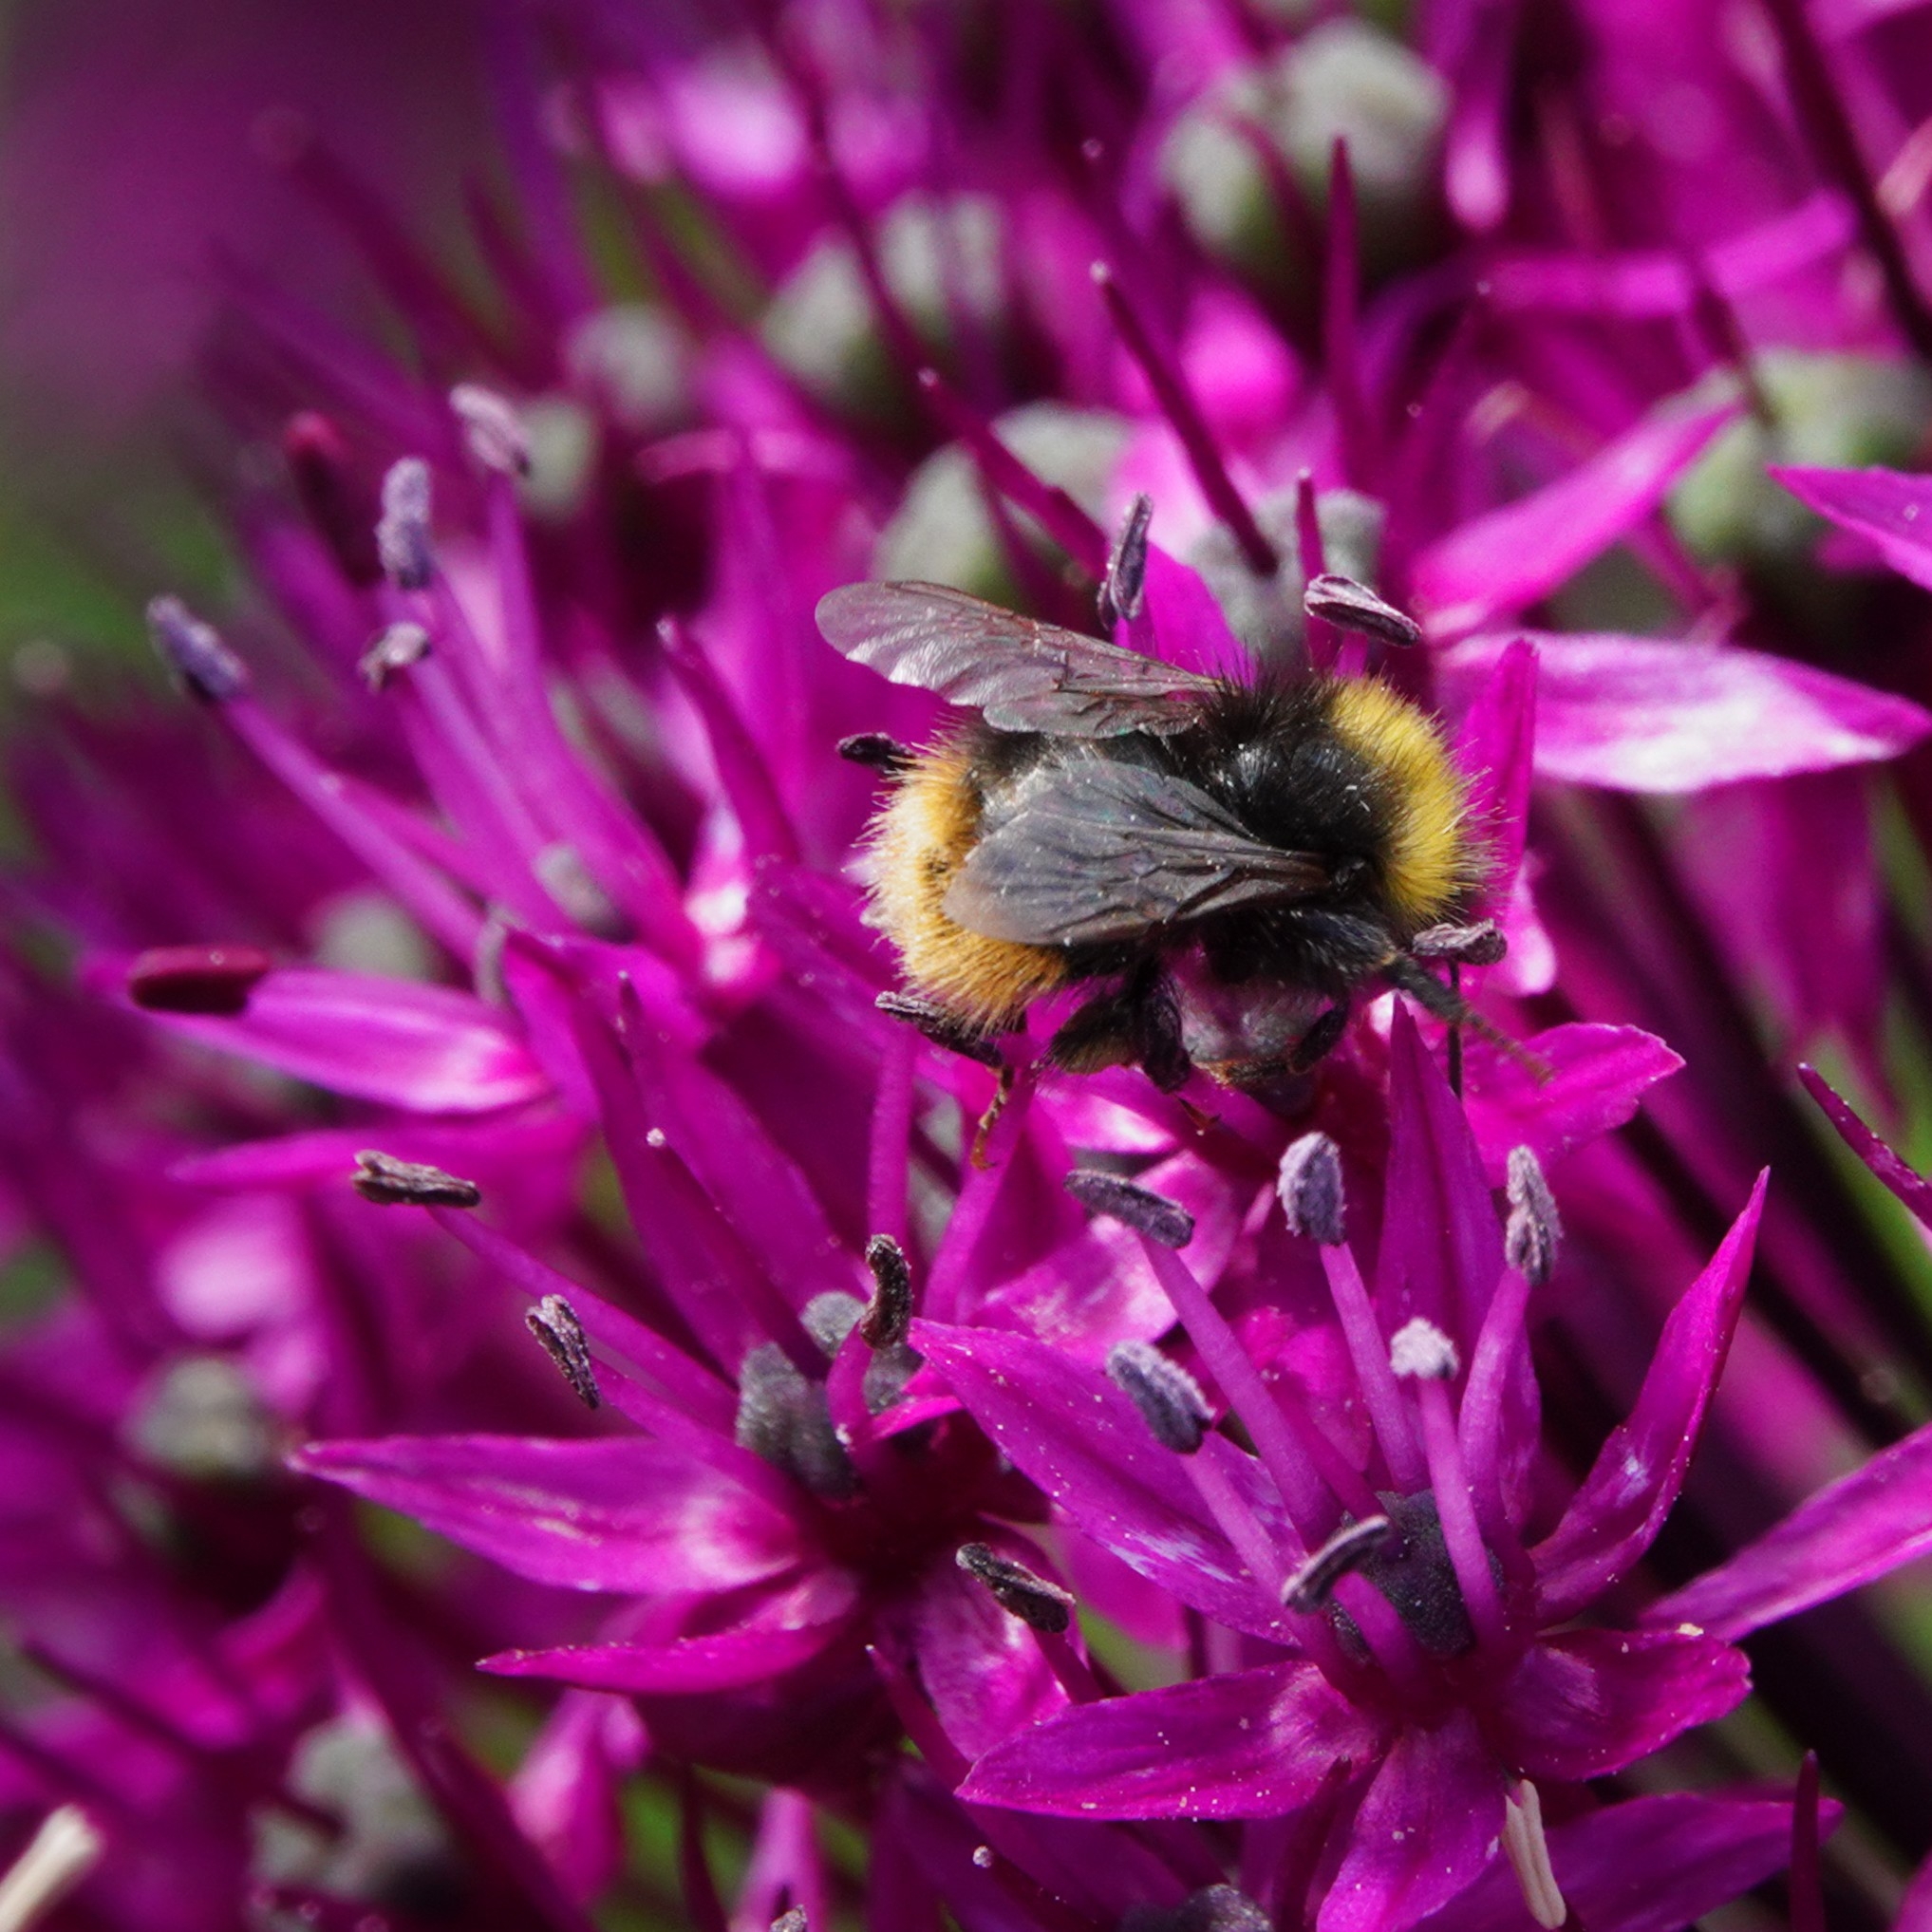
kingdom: Animalia
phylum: Arthropoda
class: Insecta
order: Hymenoptera
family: Apidae
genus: Bombus
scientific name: Bombus pratorum
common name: Early humble-bee
